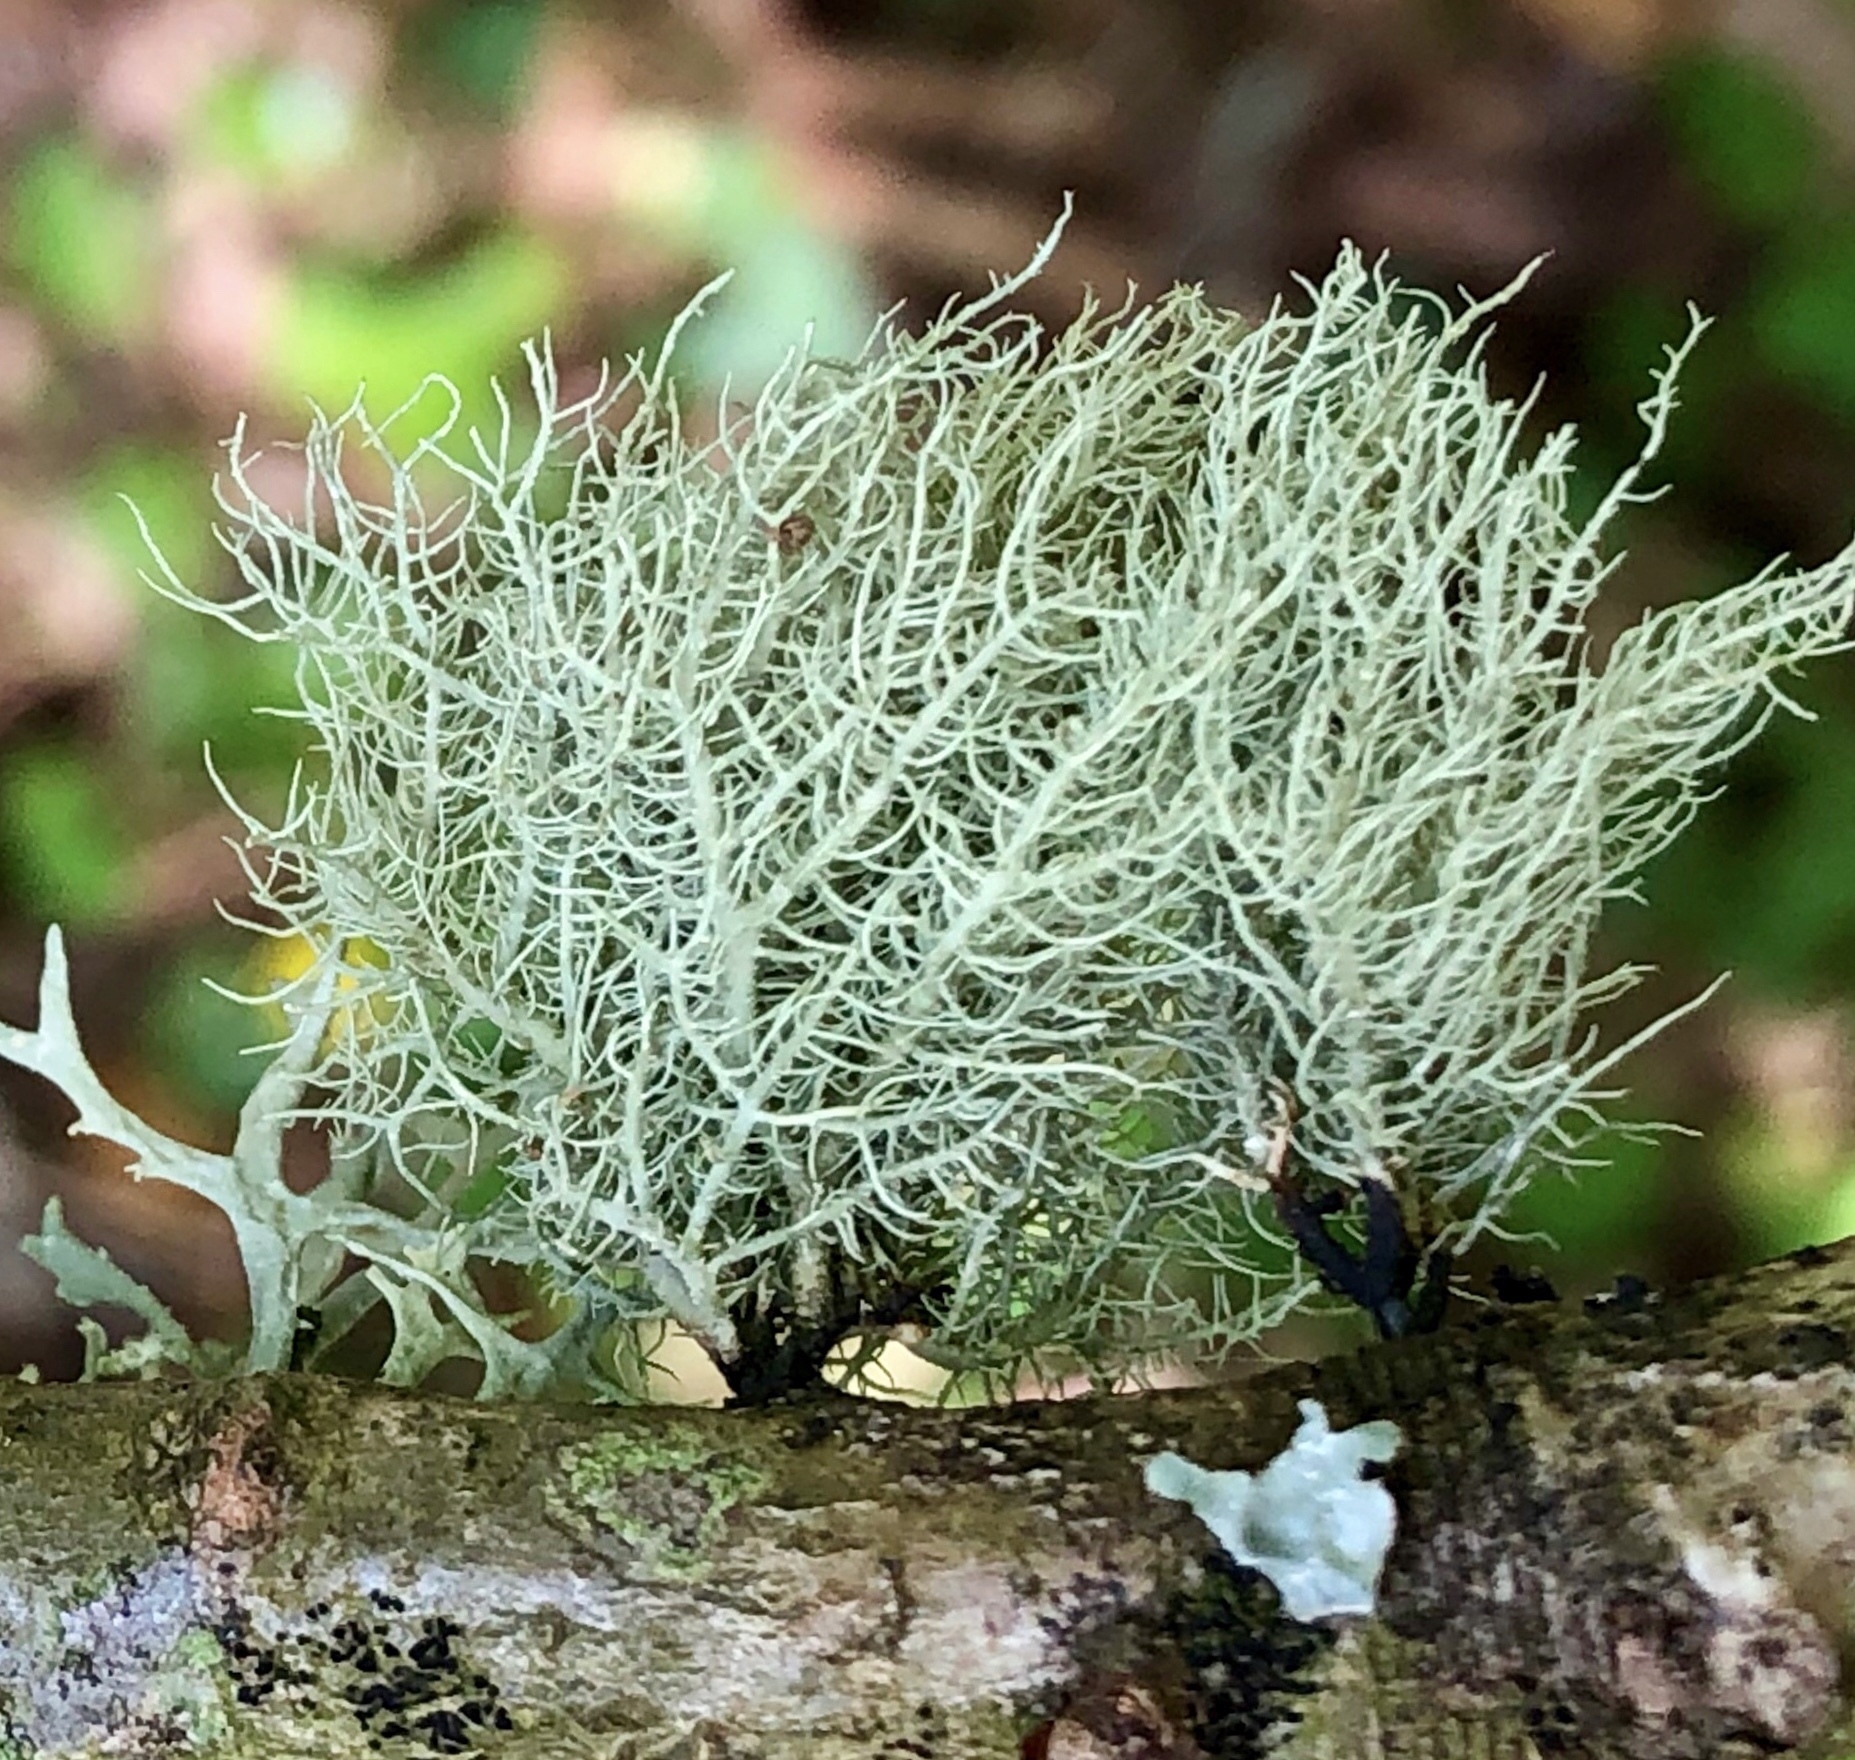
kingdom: Fungi
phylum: Ascomycota
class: Lecanoromycetes
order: Lecanorales
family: Parmeliaceae
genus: Usnea
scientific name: Usnea
